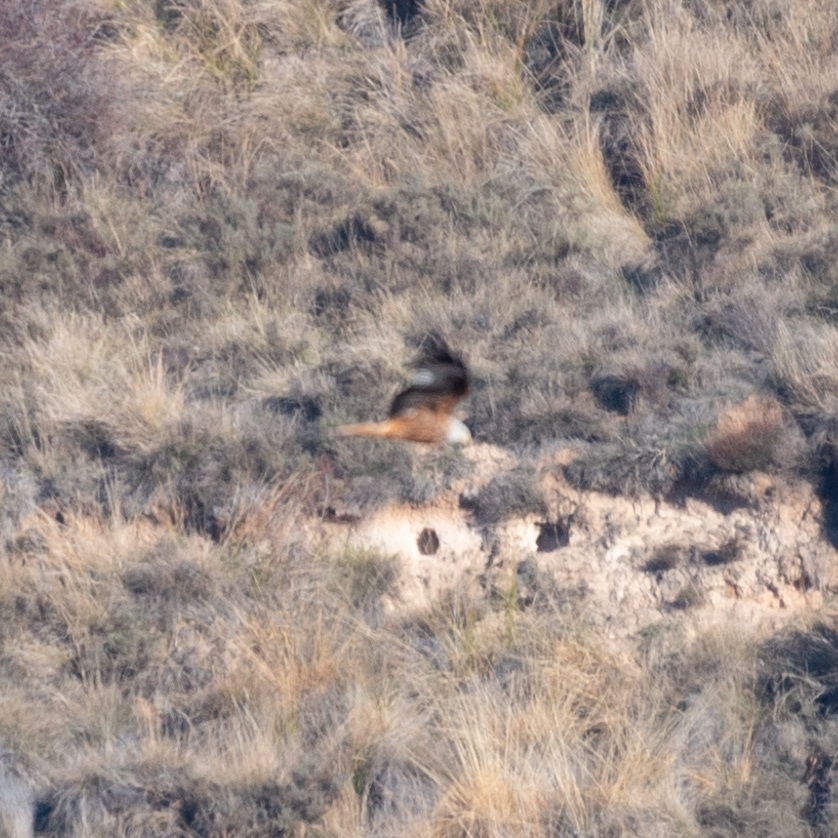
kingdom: Animalia
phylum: Chordata
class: Aves
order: Accipitriformes
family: Accipitridae
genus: Milvus
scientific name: Milvus milvus
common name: Red kite
